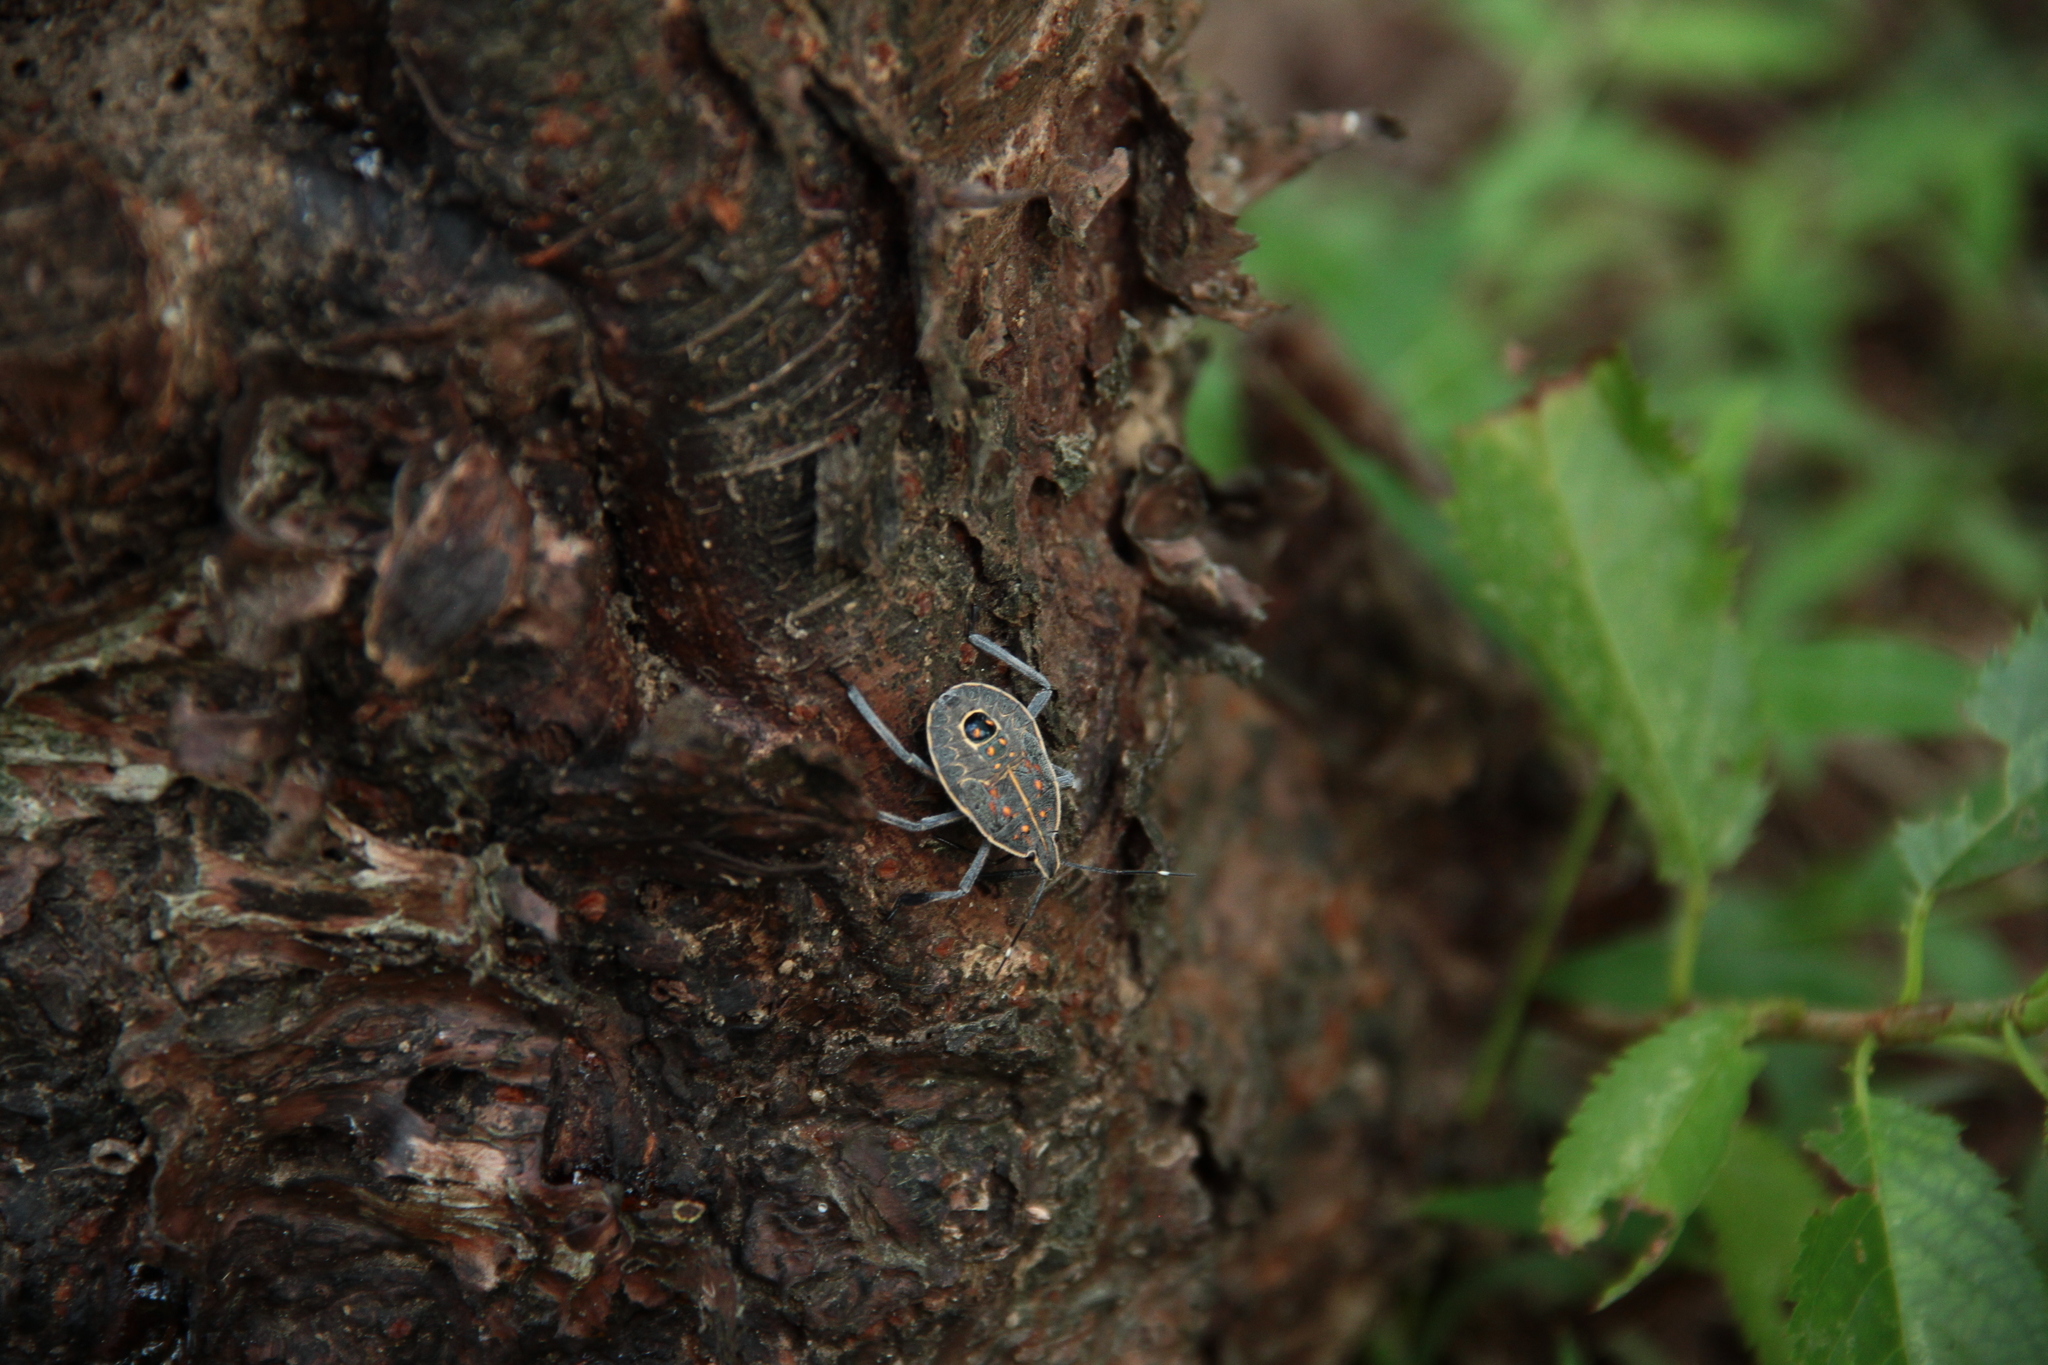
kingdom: Animalia
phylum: Arthropoda
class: Insecta
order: Hemiptera
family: Pentatomidae
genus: Erthesina
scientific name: Erthesina fullo
